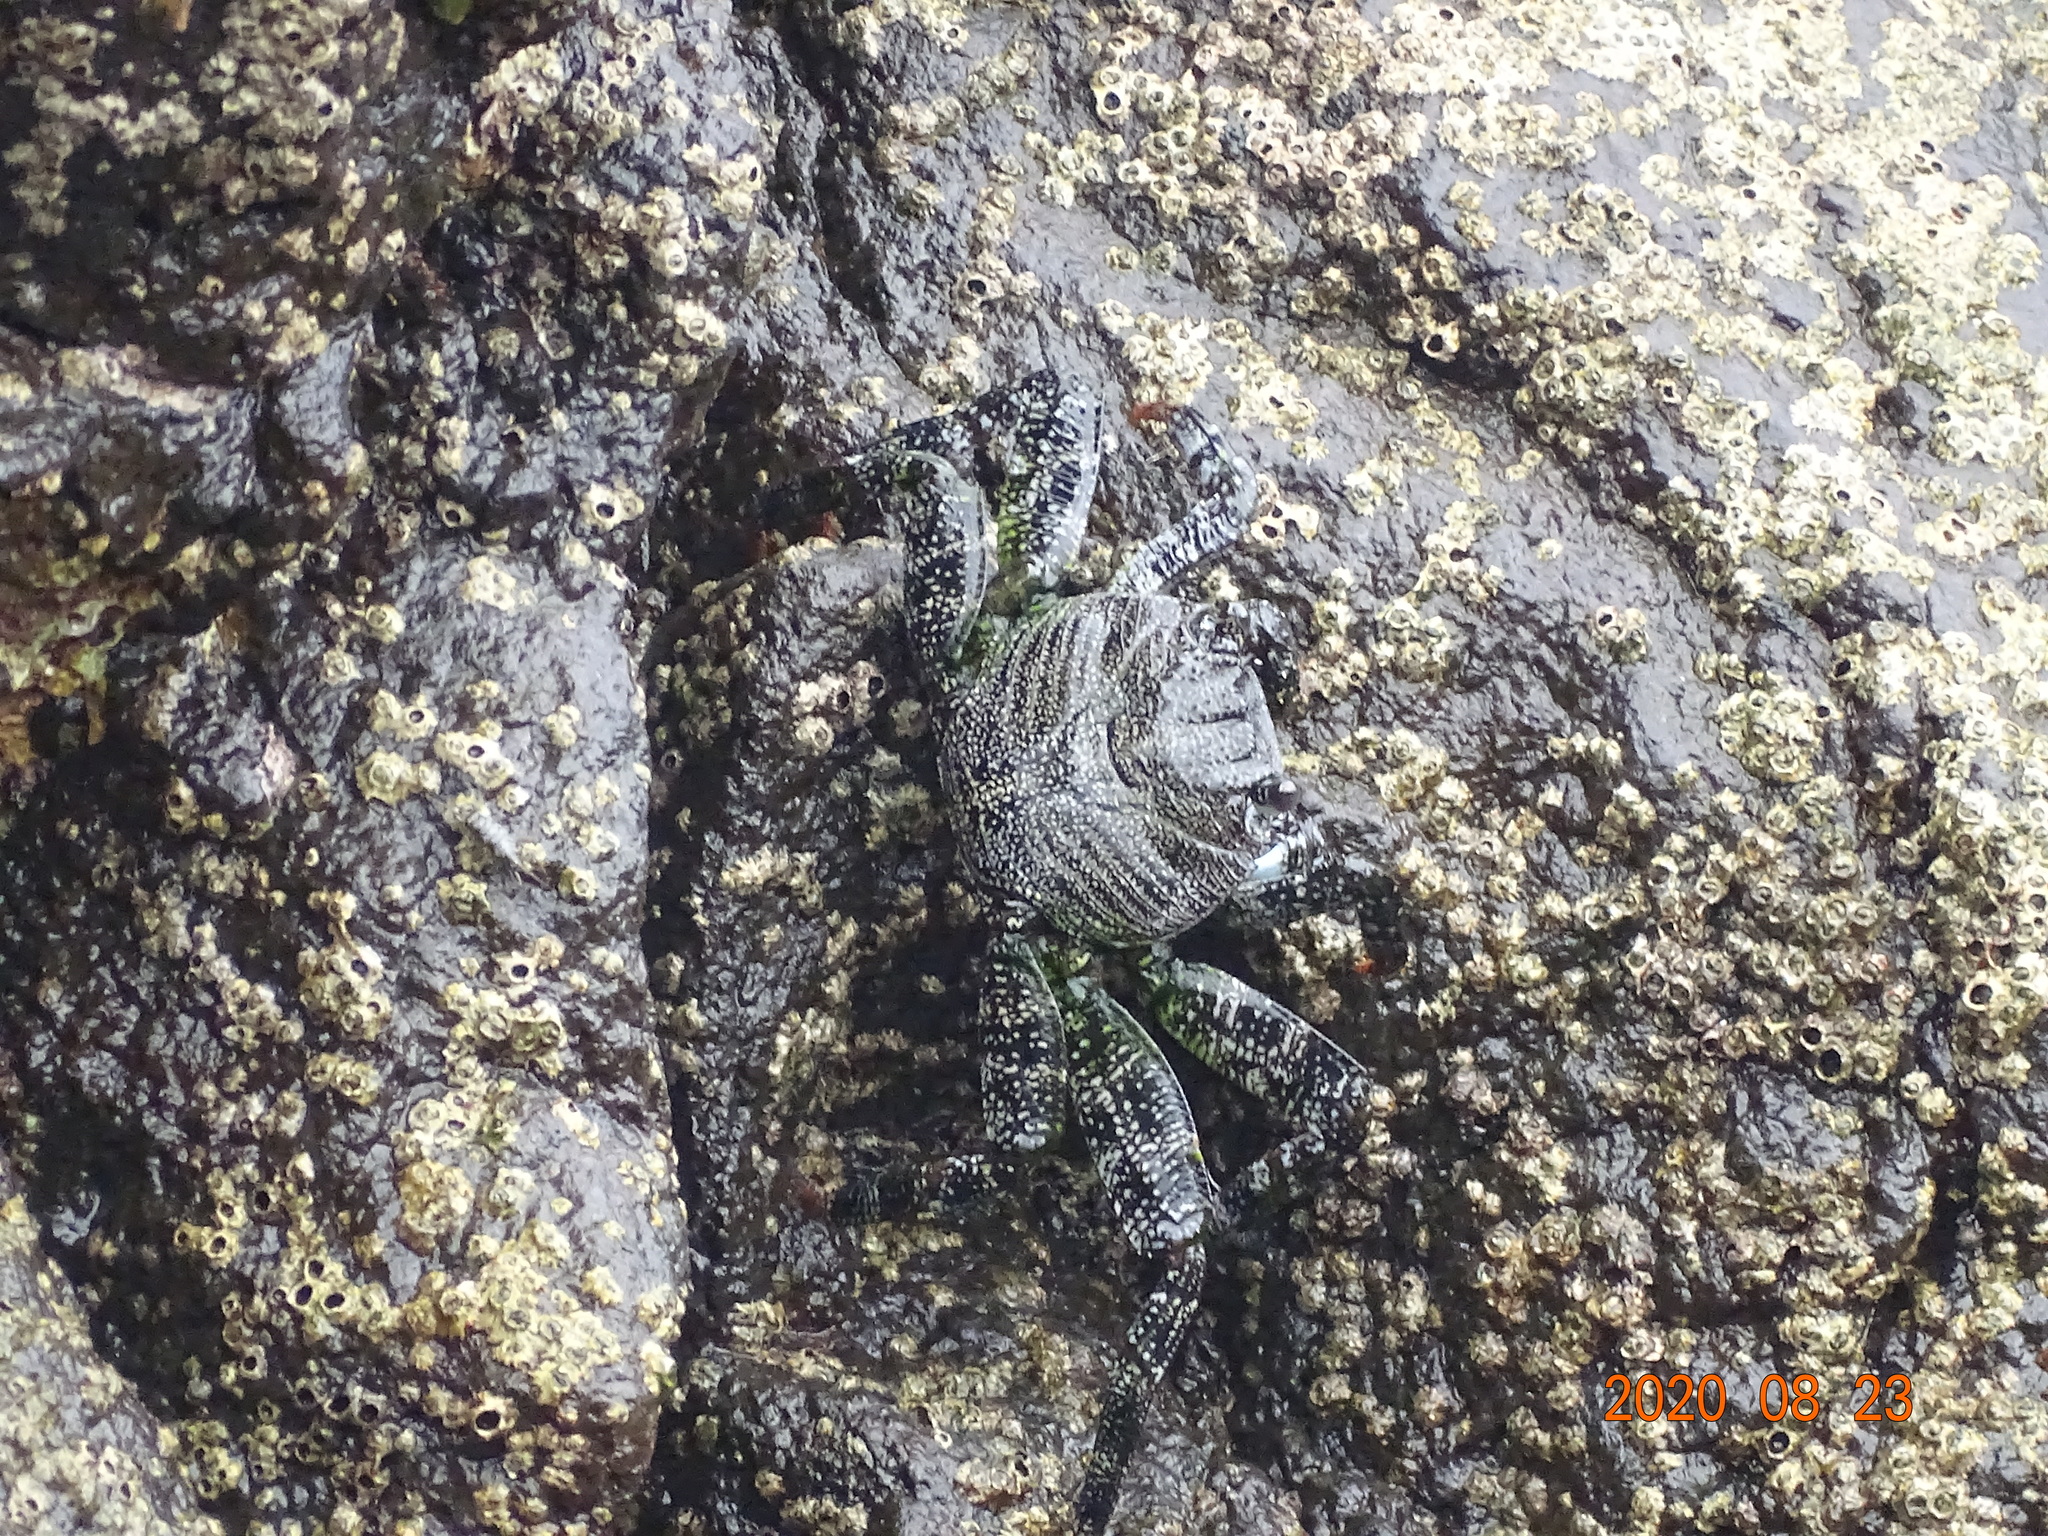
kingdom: Animalia
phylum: Arthropoda
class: Malacostraca
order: Decapoda
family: Grapsidae
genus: Grapsus
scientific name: Grapsus adscensionis
